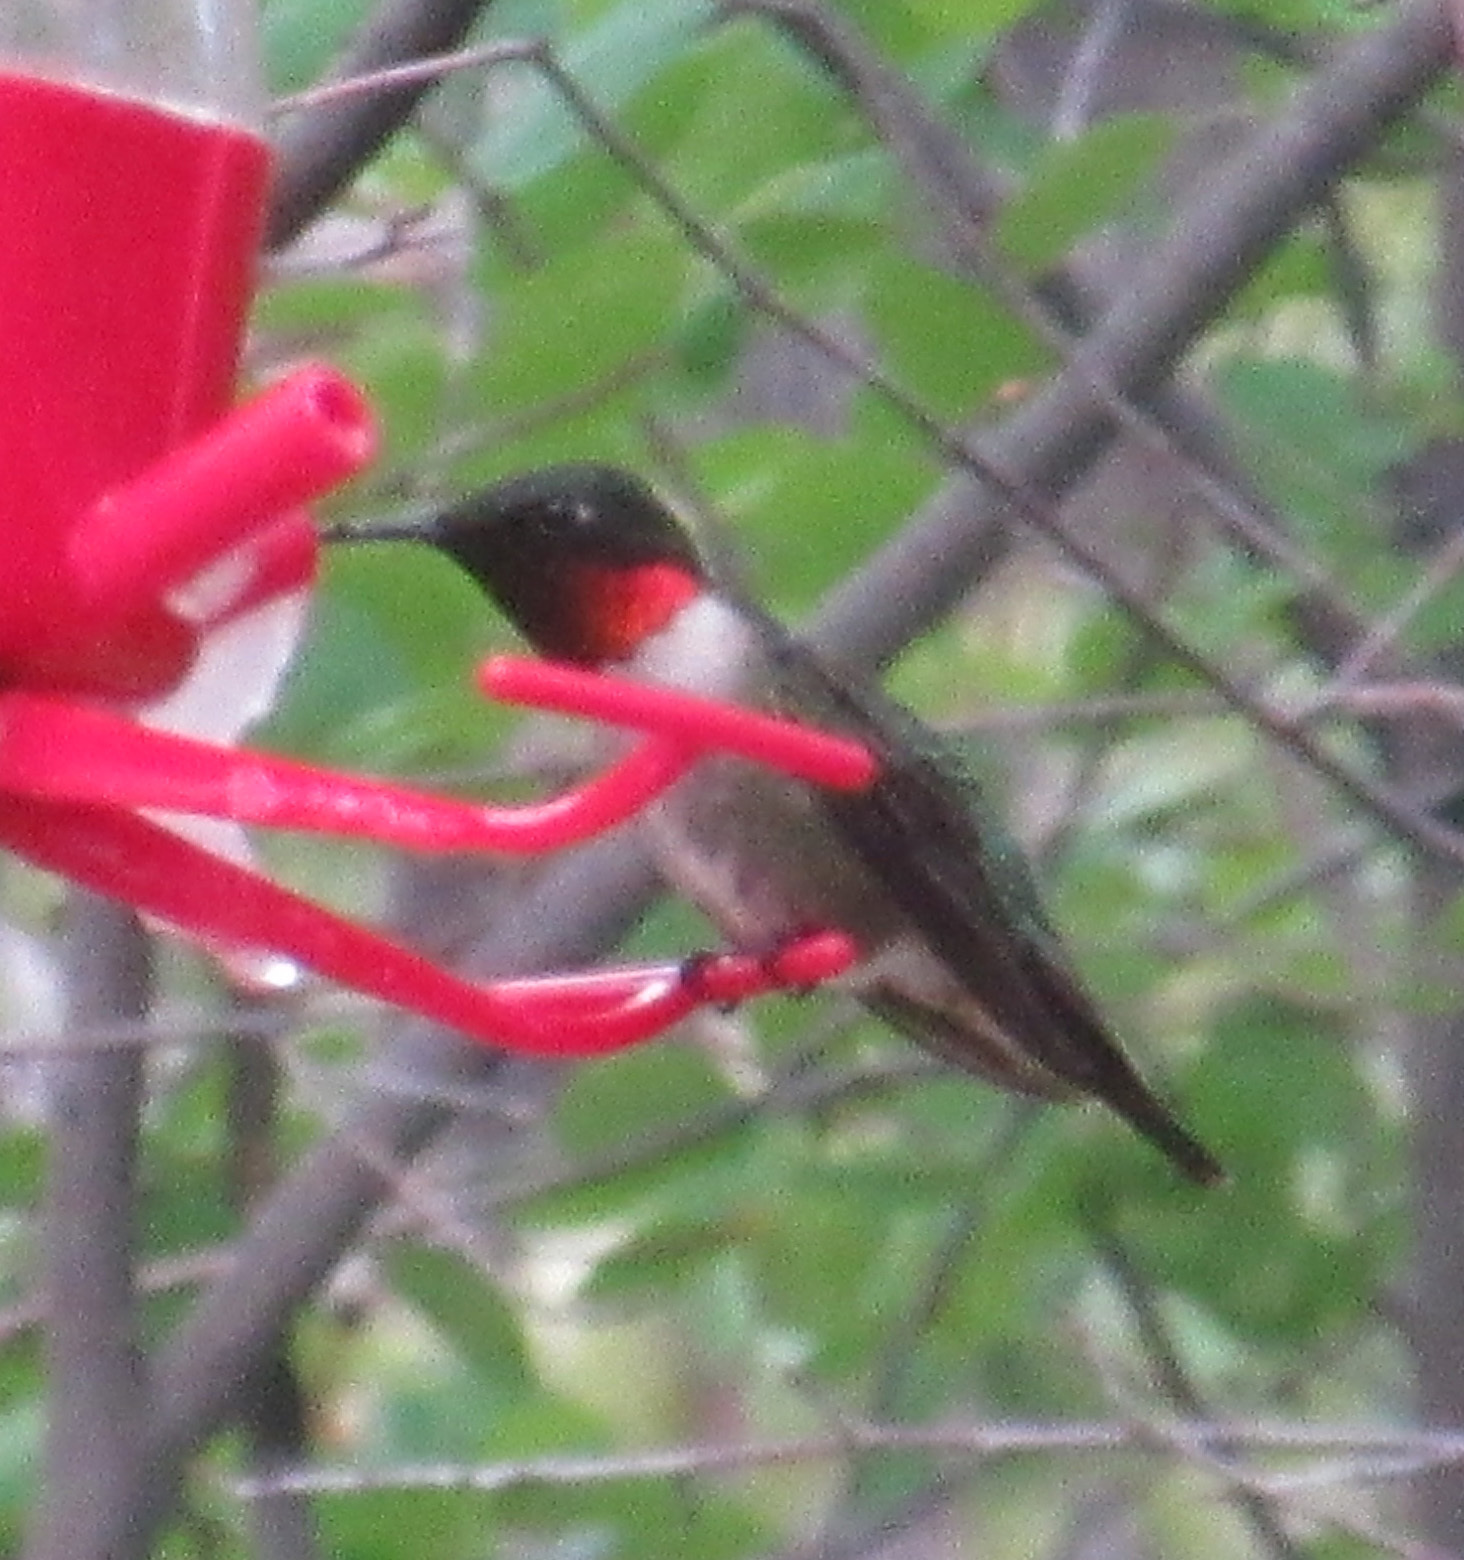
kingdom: Animalia
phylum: Chordata
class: Aves
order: Apodiformes
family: Trochilidae
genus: Archilochus
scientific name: Archilochus colubris
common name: Ruby-throated hummingbird
